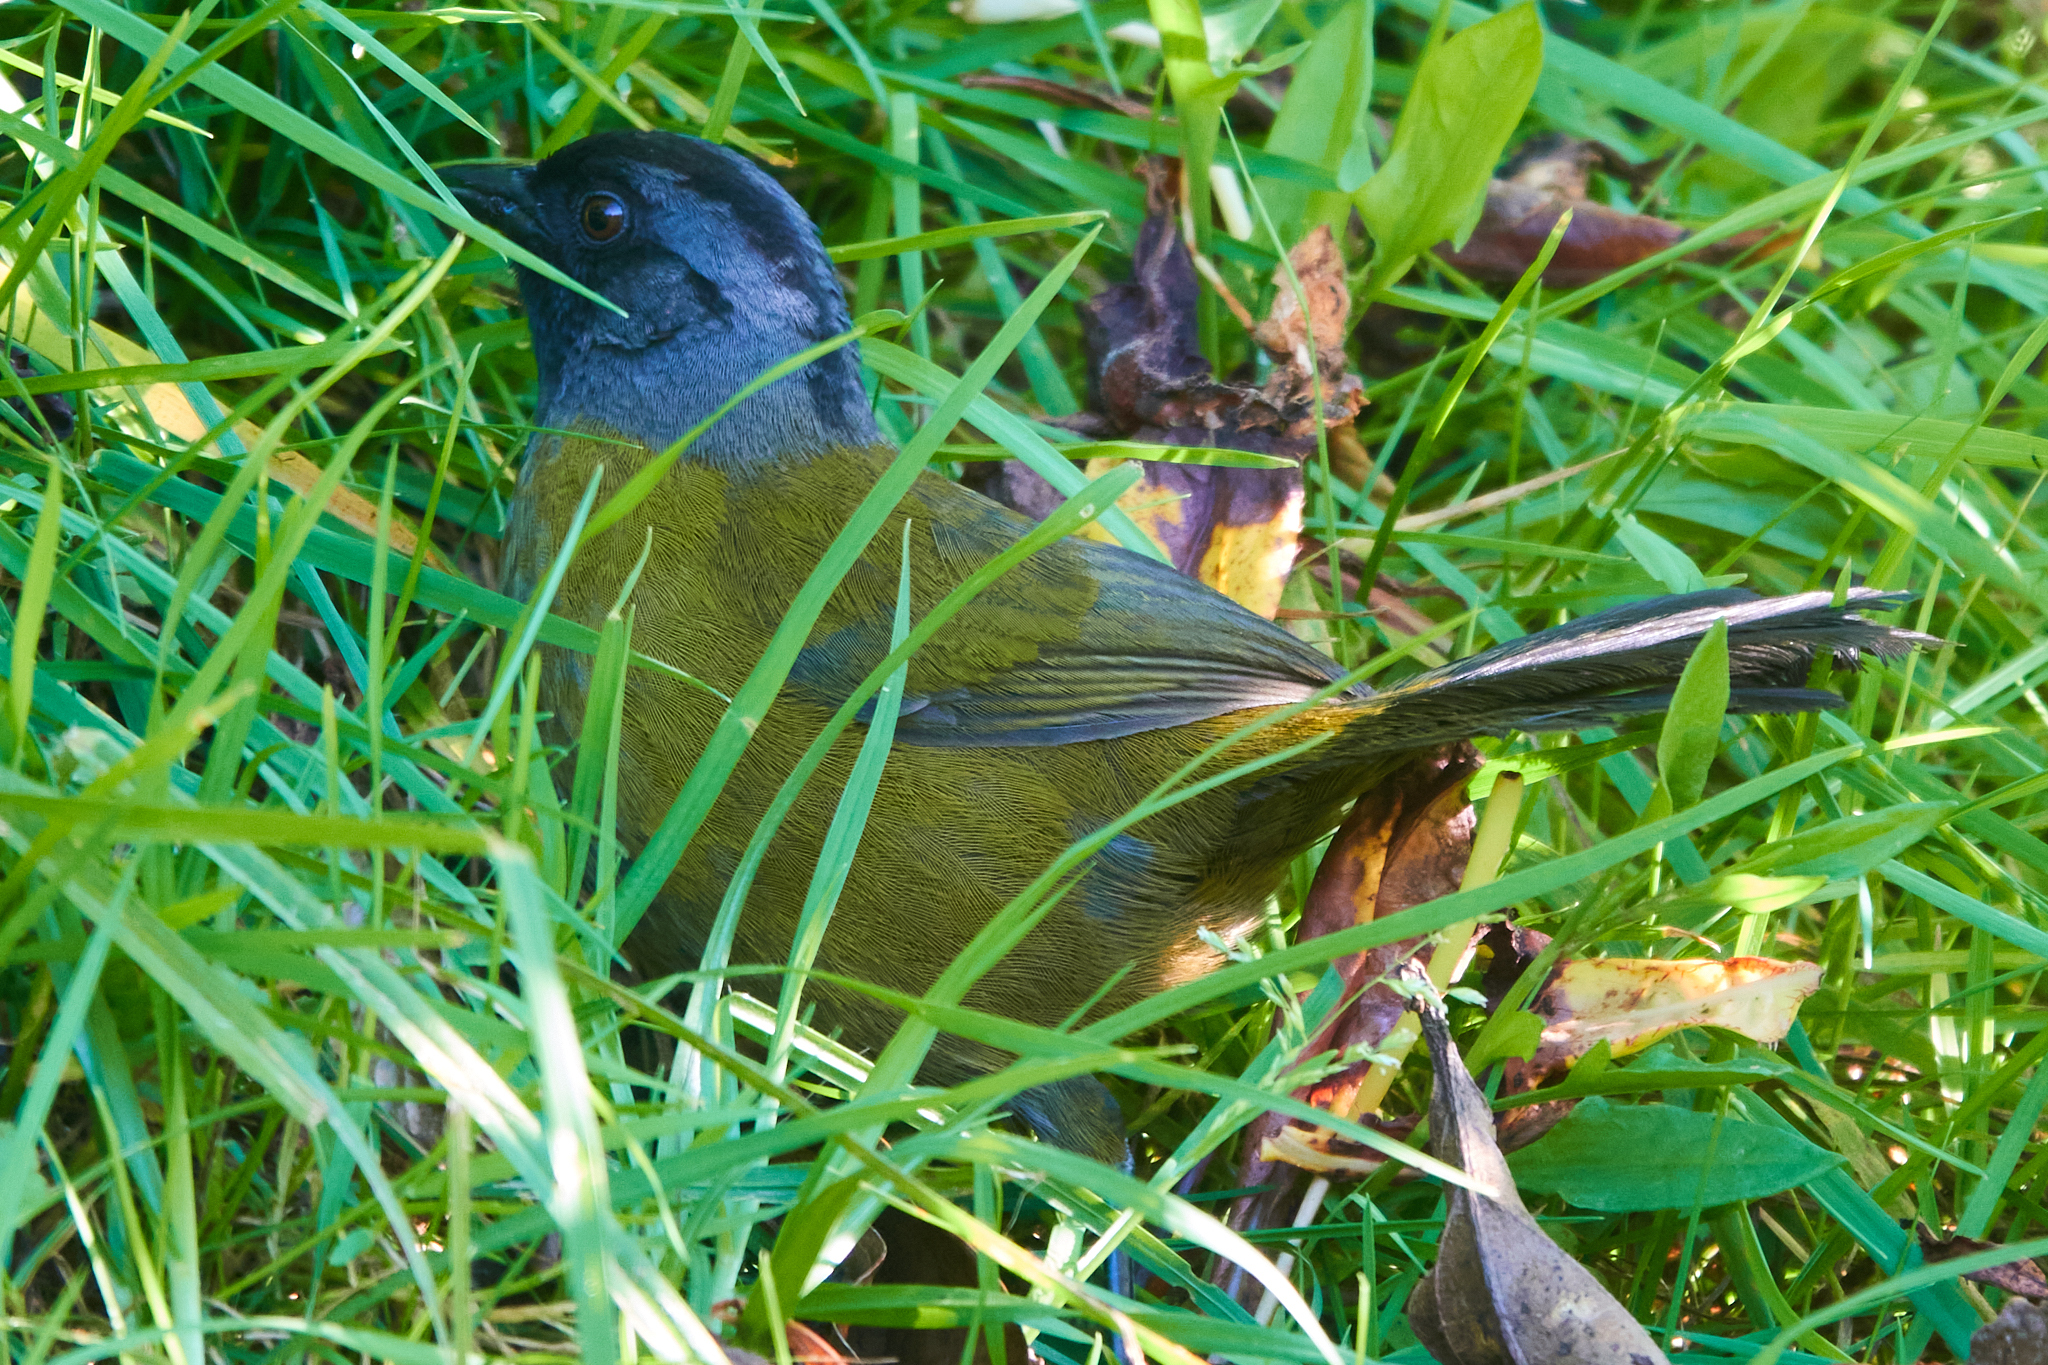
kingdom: Animalia
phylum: Chordata
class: Aves
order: Passeriformes
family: Passerellidae
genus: Pezopetes
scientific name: Pezopetes capitalis
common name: Large-footed finch
